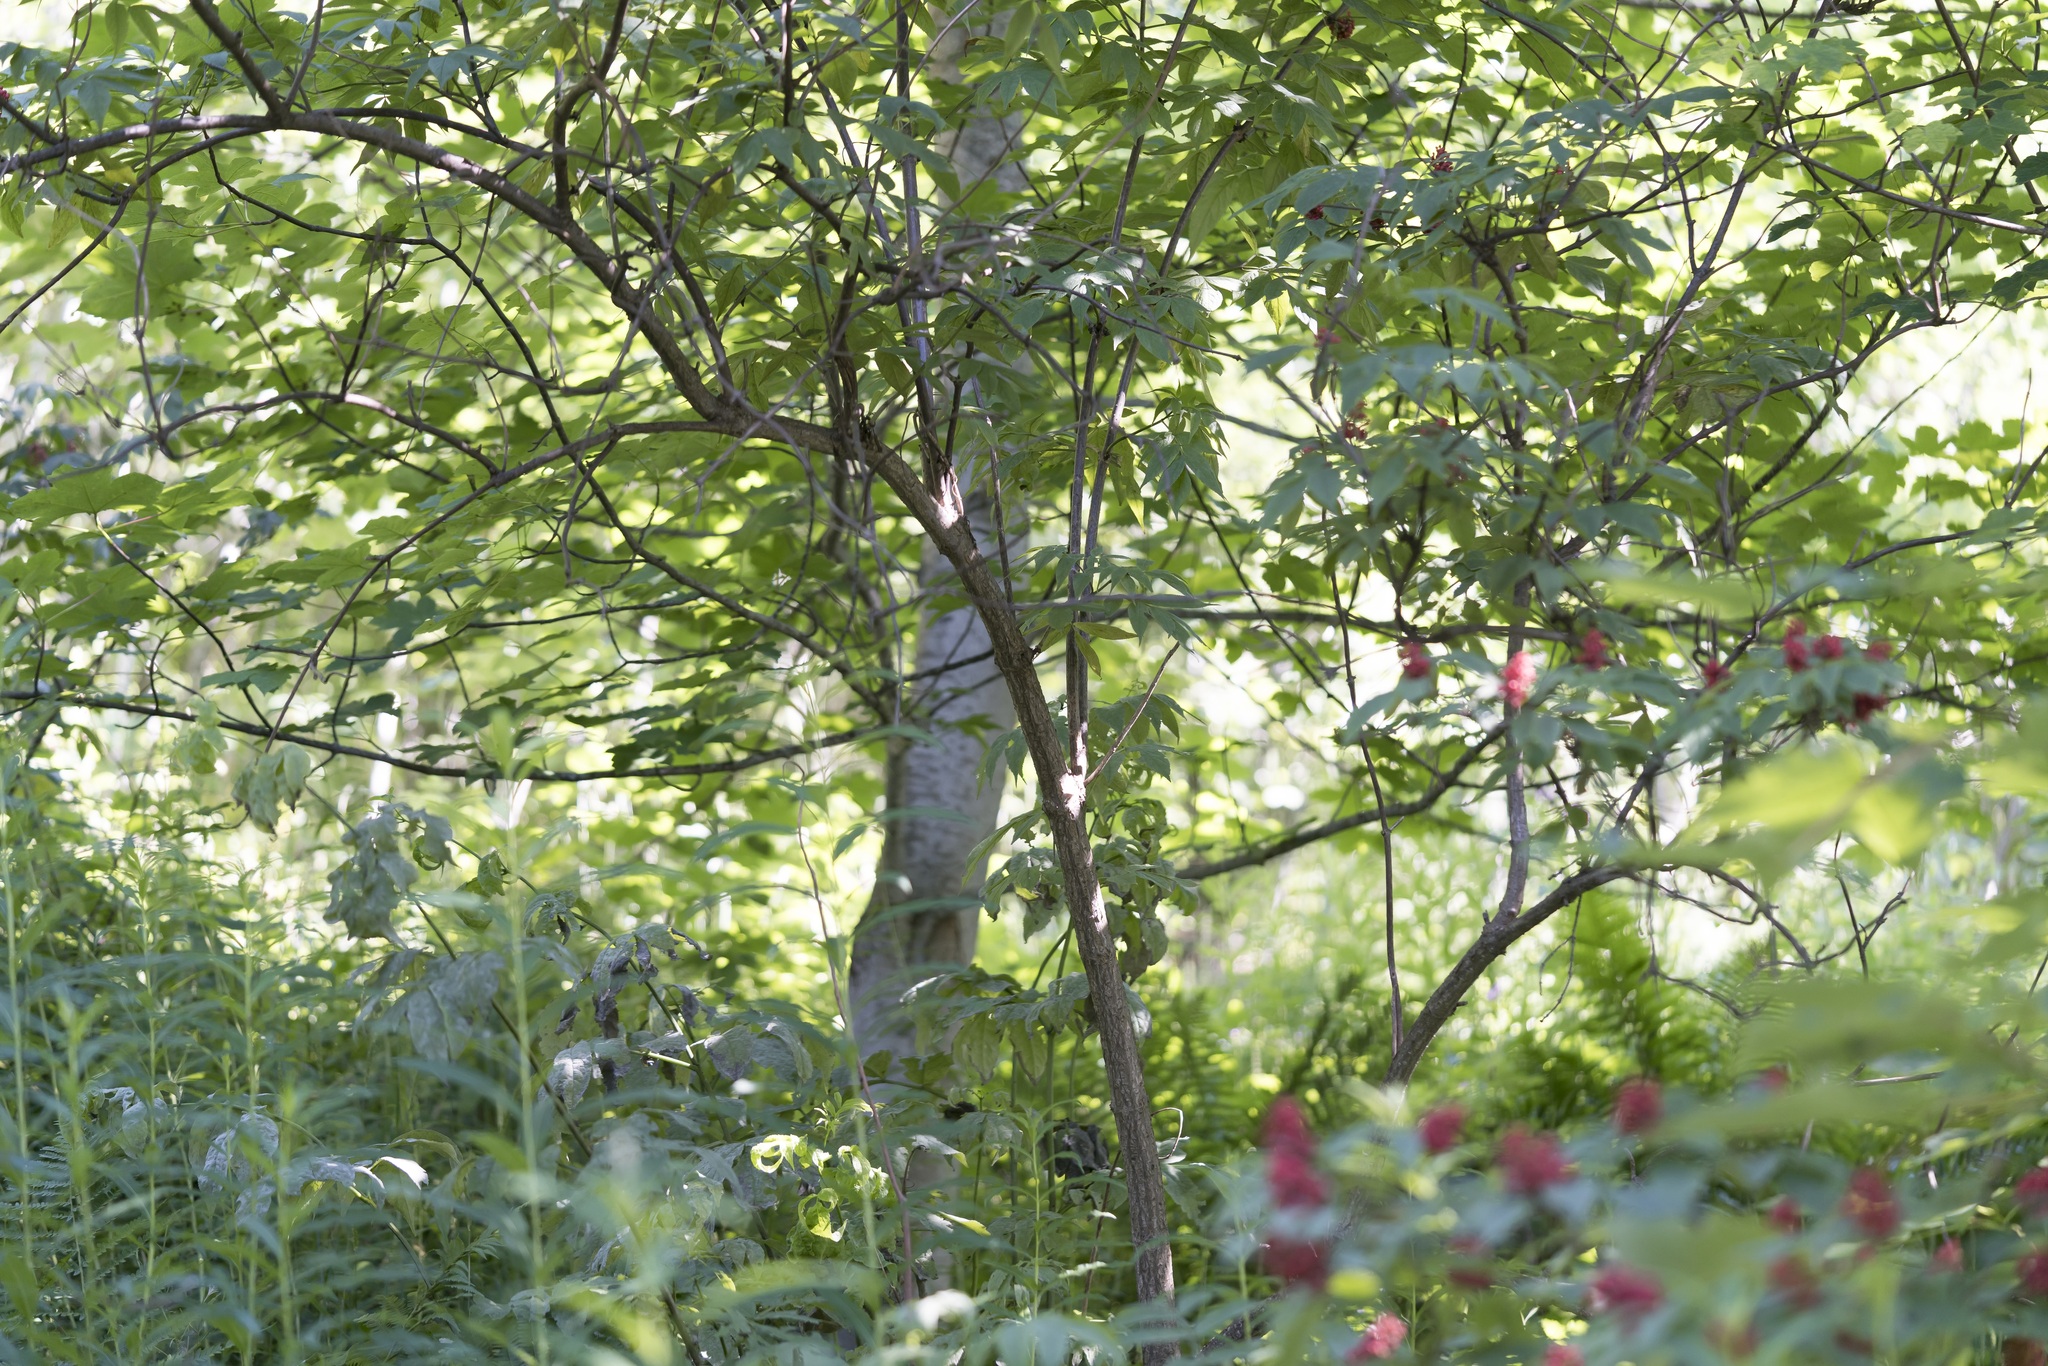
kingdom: Plantae
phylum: Tracheophyta
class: Magnoliopsida
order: Dipsacales
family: Viburnaceae
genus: Sambucus
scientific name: Sambucus racemosa
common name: Red-berried elder
